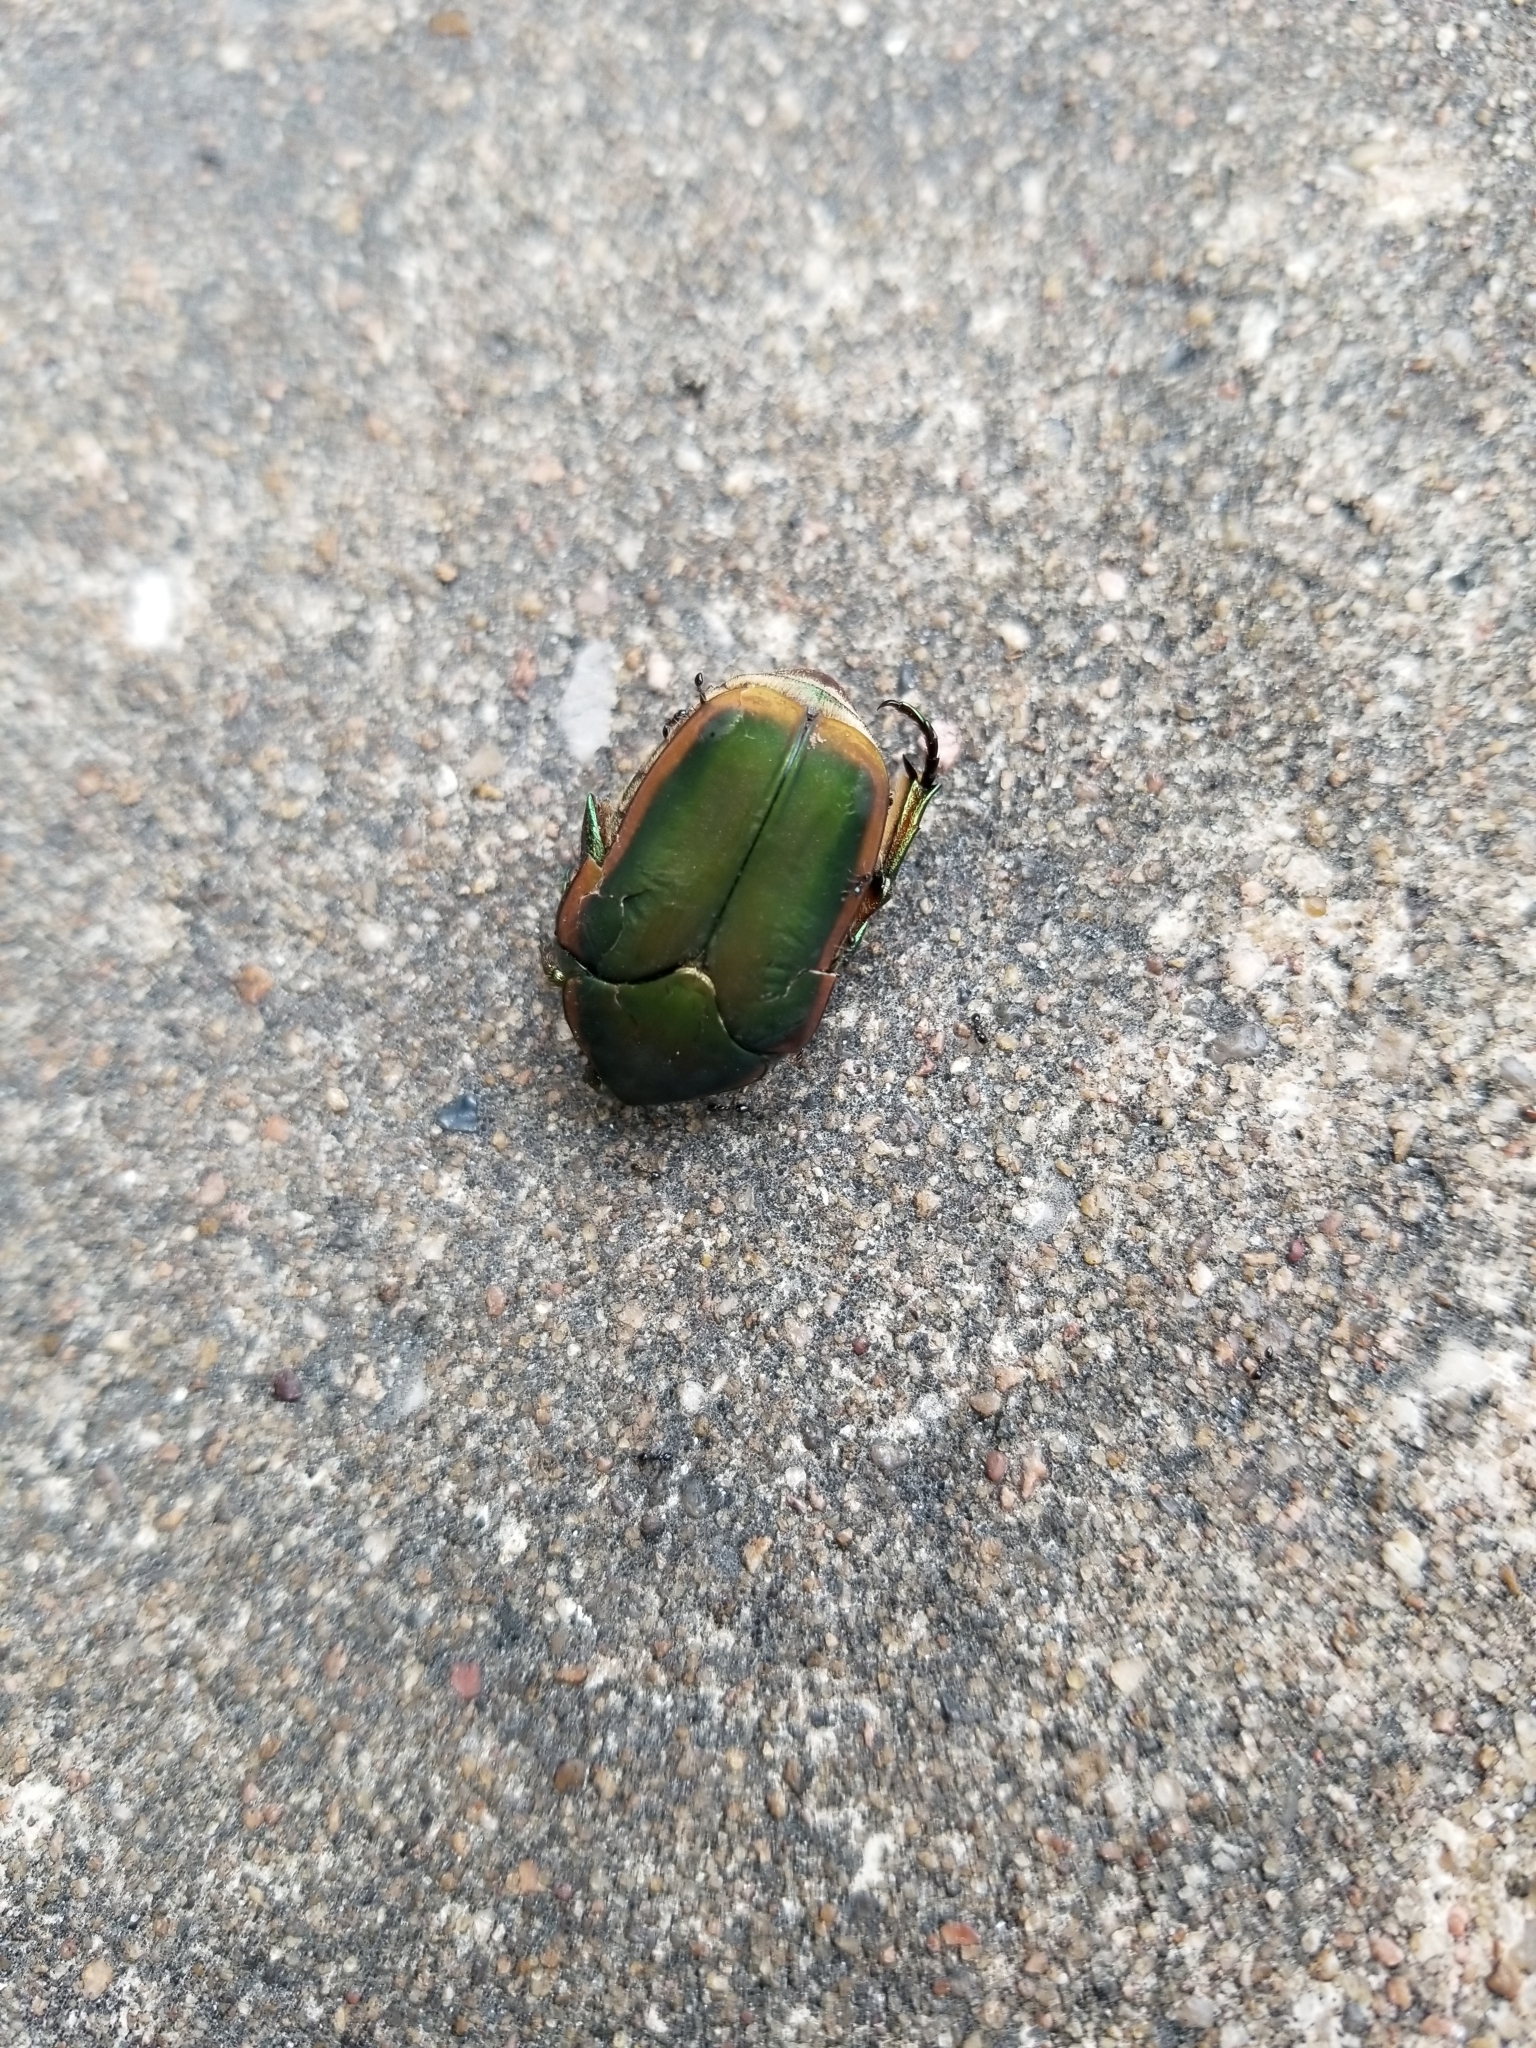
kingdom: Animalia
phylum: Arthropoda
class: Insecta
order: Coleoptera
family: Scarabaeidae
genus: Cotinis
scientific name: Cotinis nitida
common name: Common green june beetle
